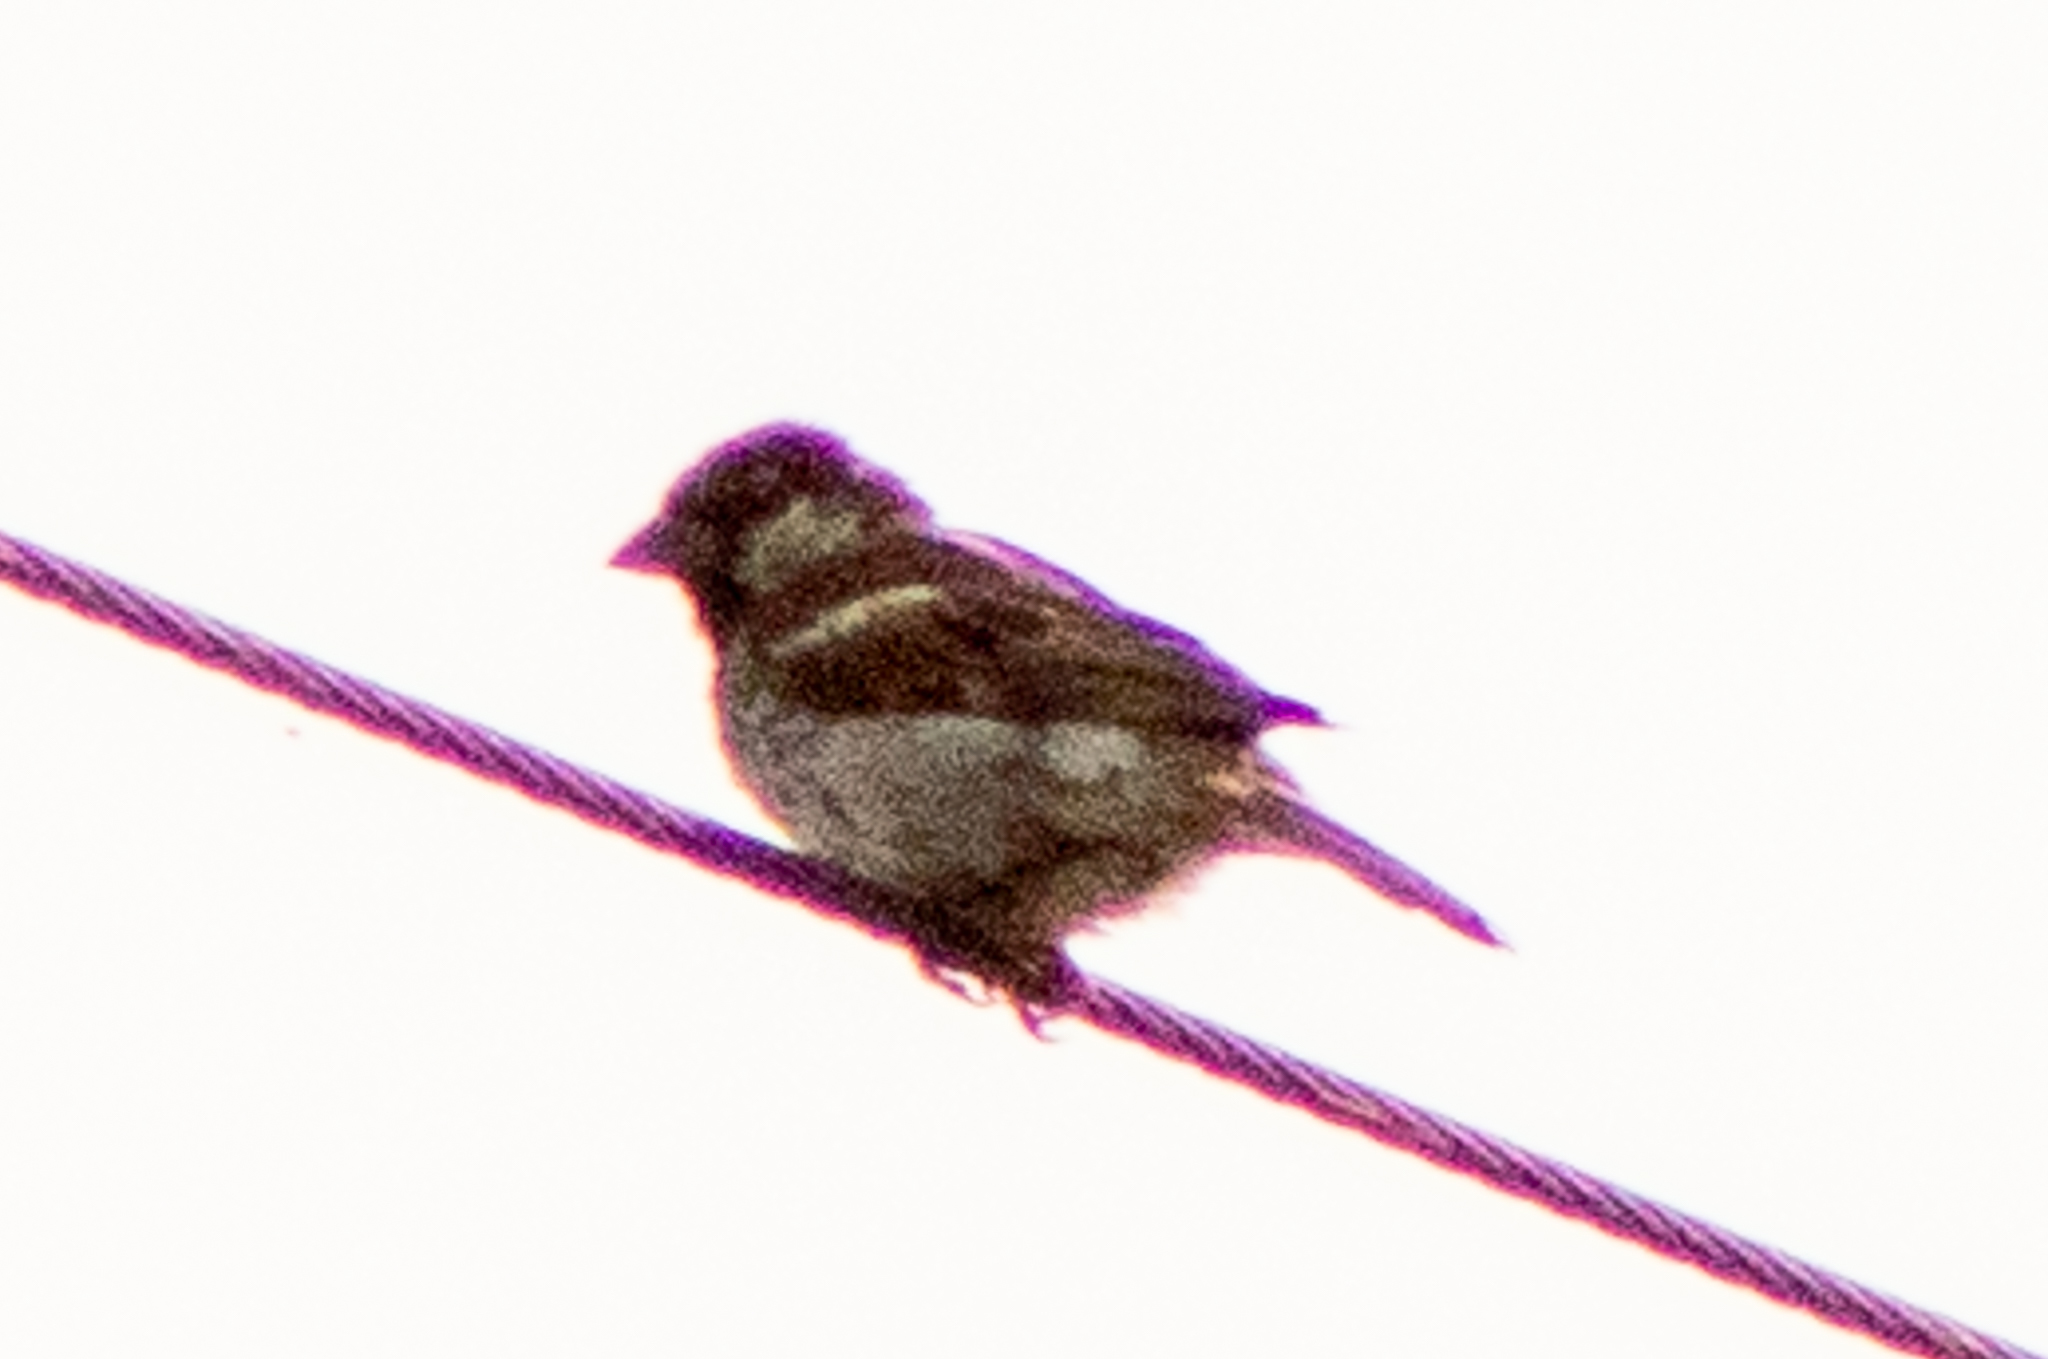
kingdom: Animalia
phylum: Chordata
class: Aves
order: Passeriformes
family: Passeridae
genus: Passer
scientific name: Passer domesticus
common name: House sparrow
